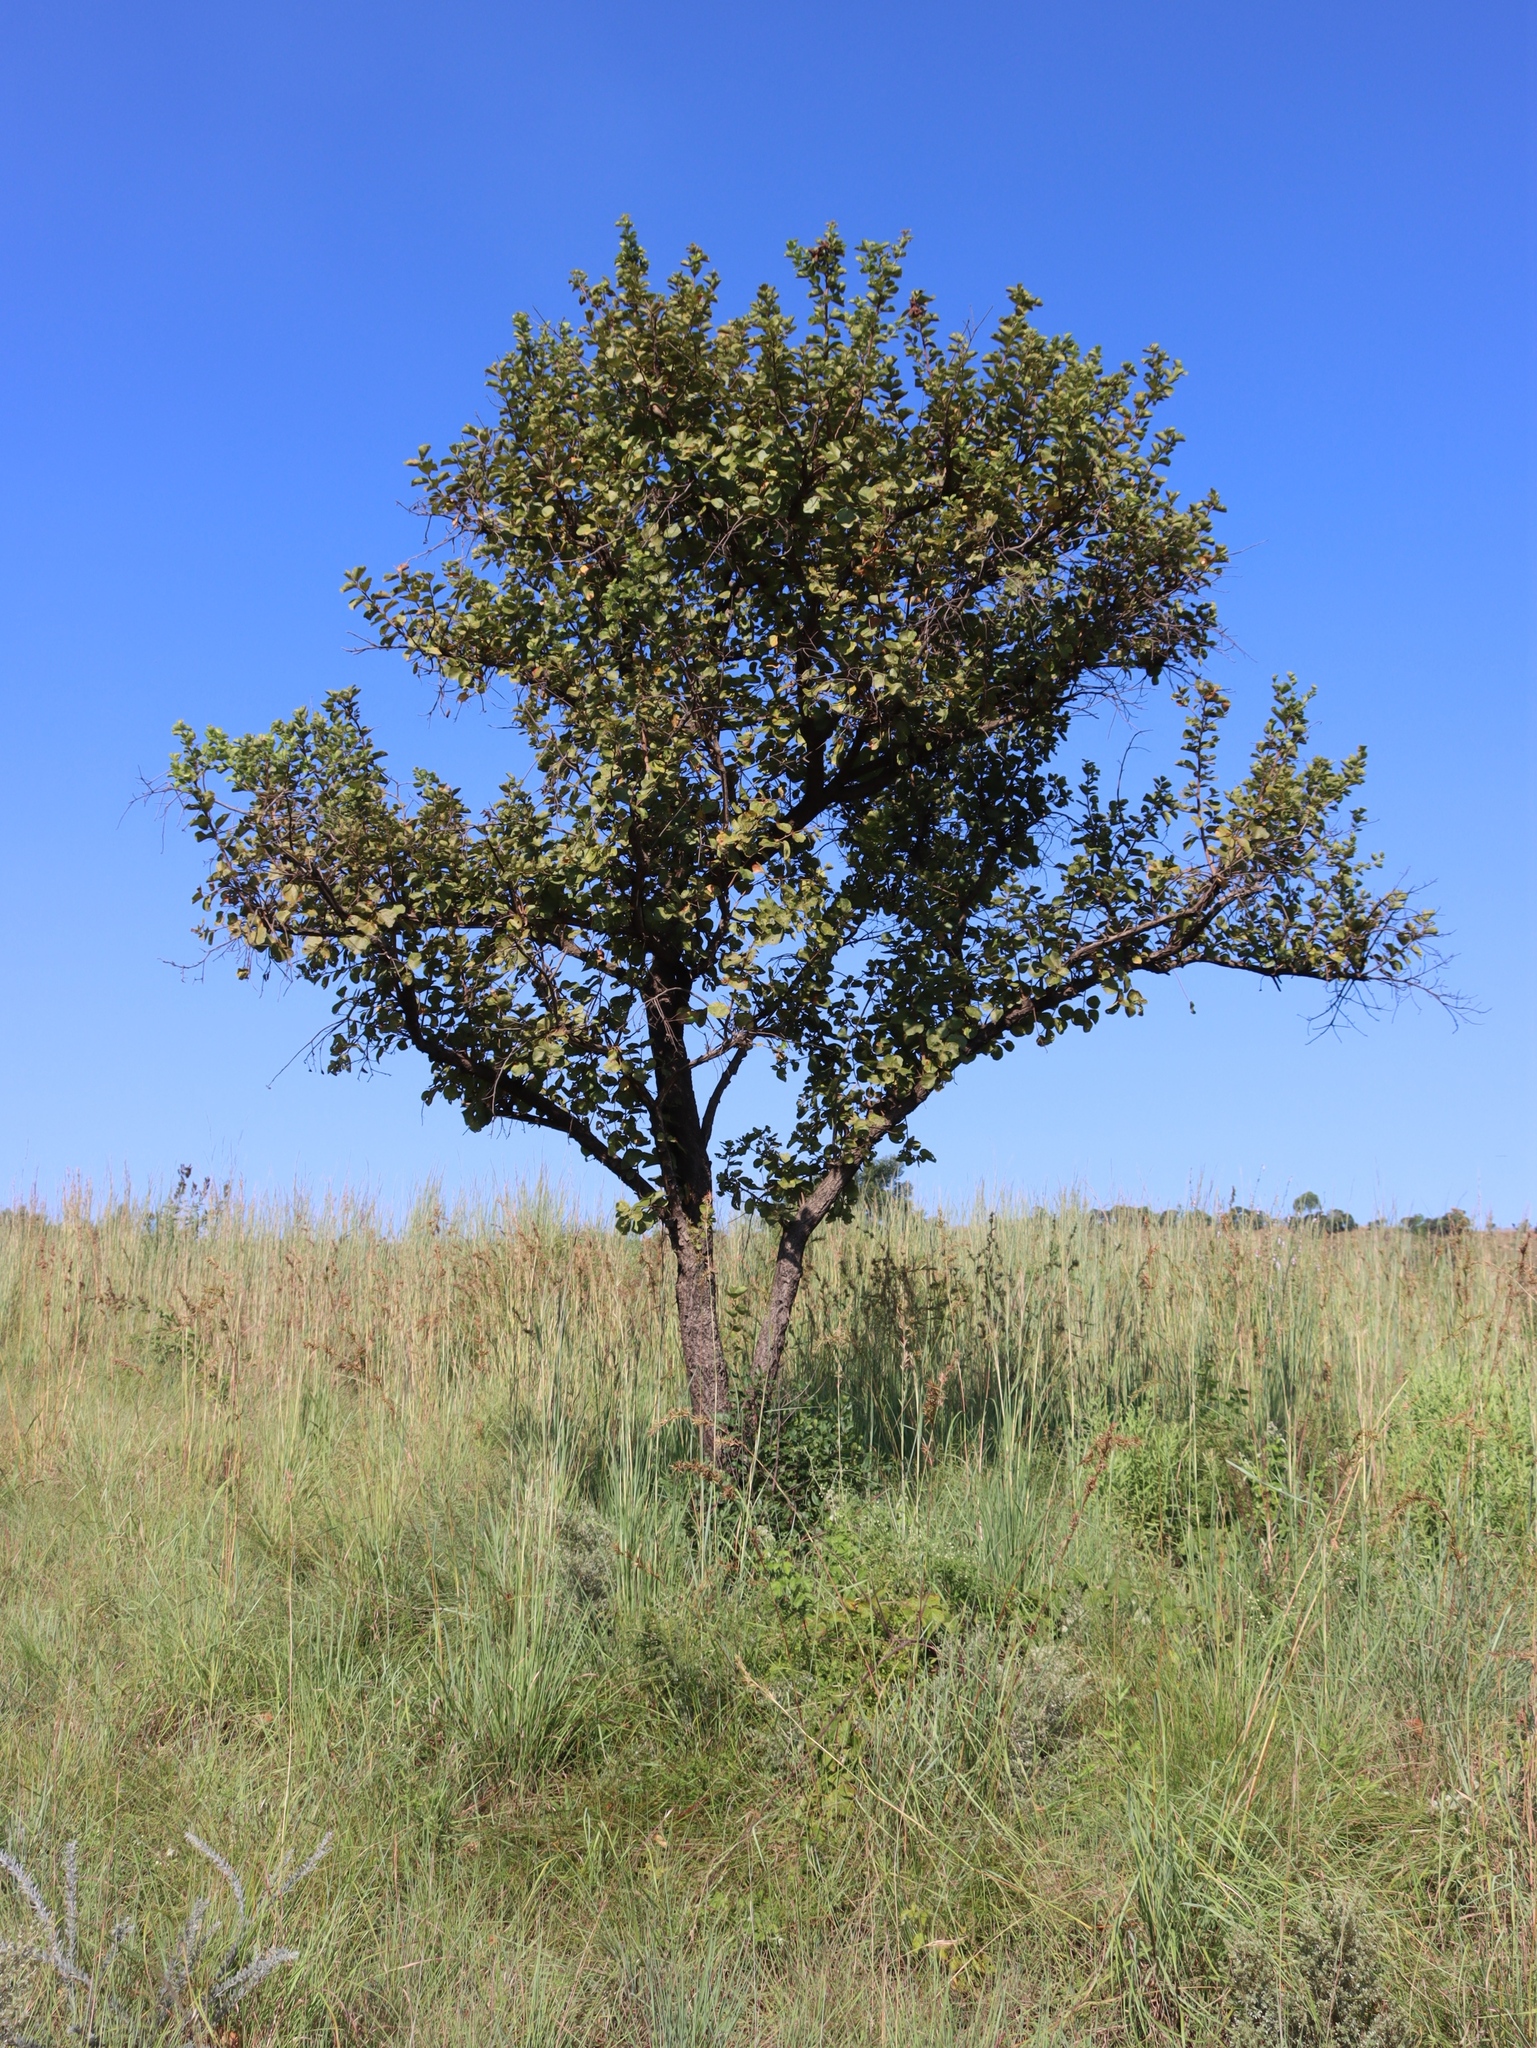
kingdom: Plantae
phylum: Tracheophyta
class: Magnoliopsida
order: Malvales
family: Malvaceae
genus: Dombeya
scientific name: Dombeya rotundifolia
